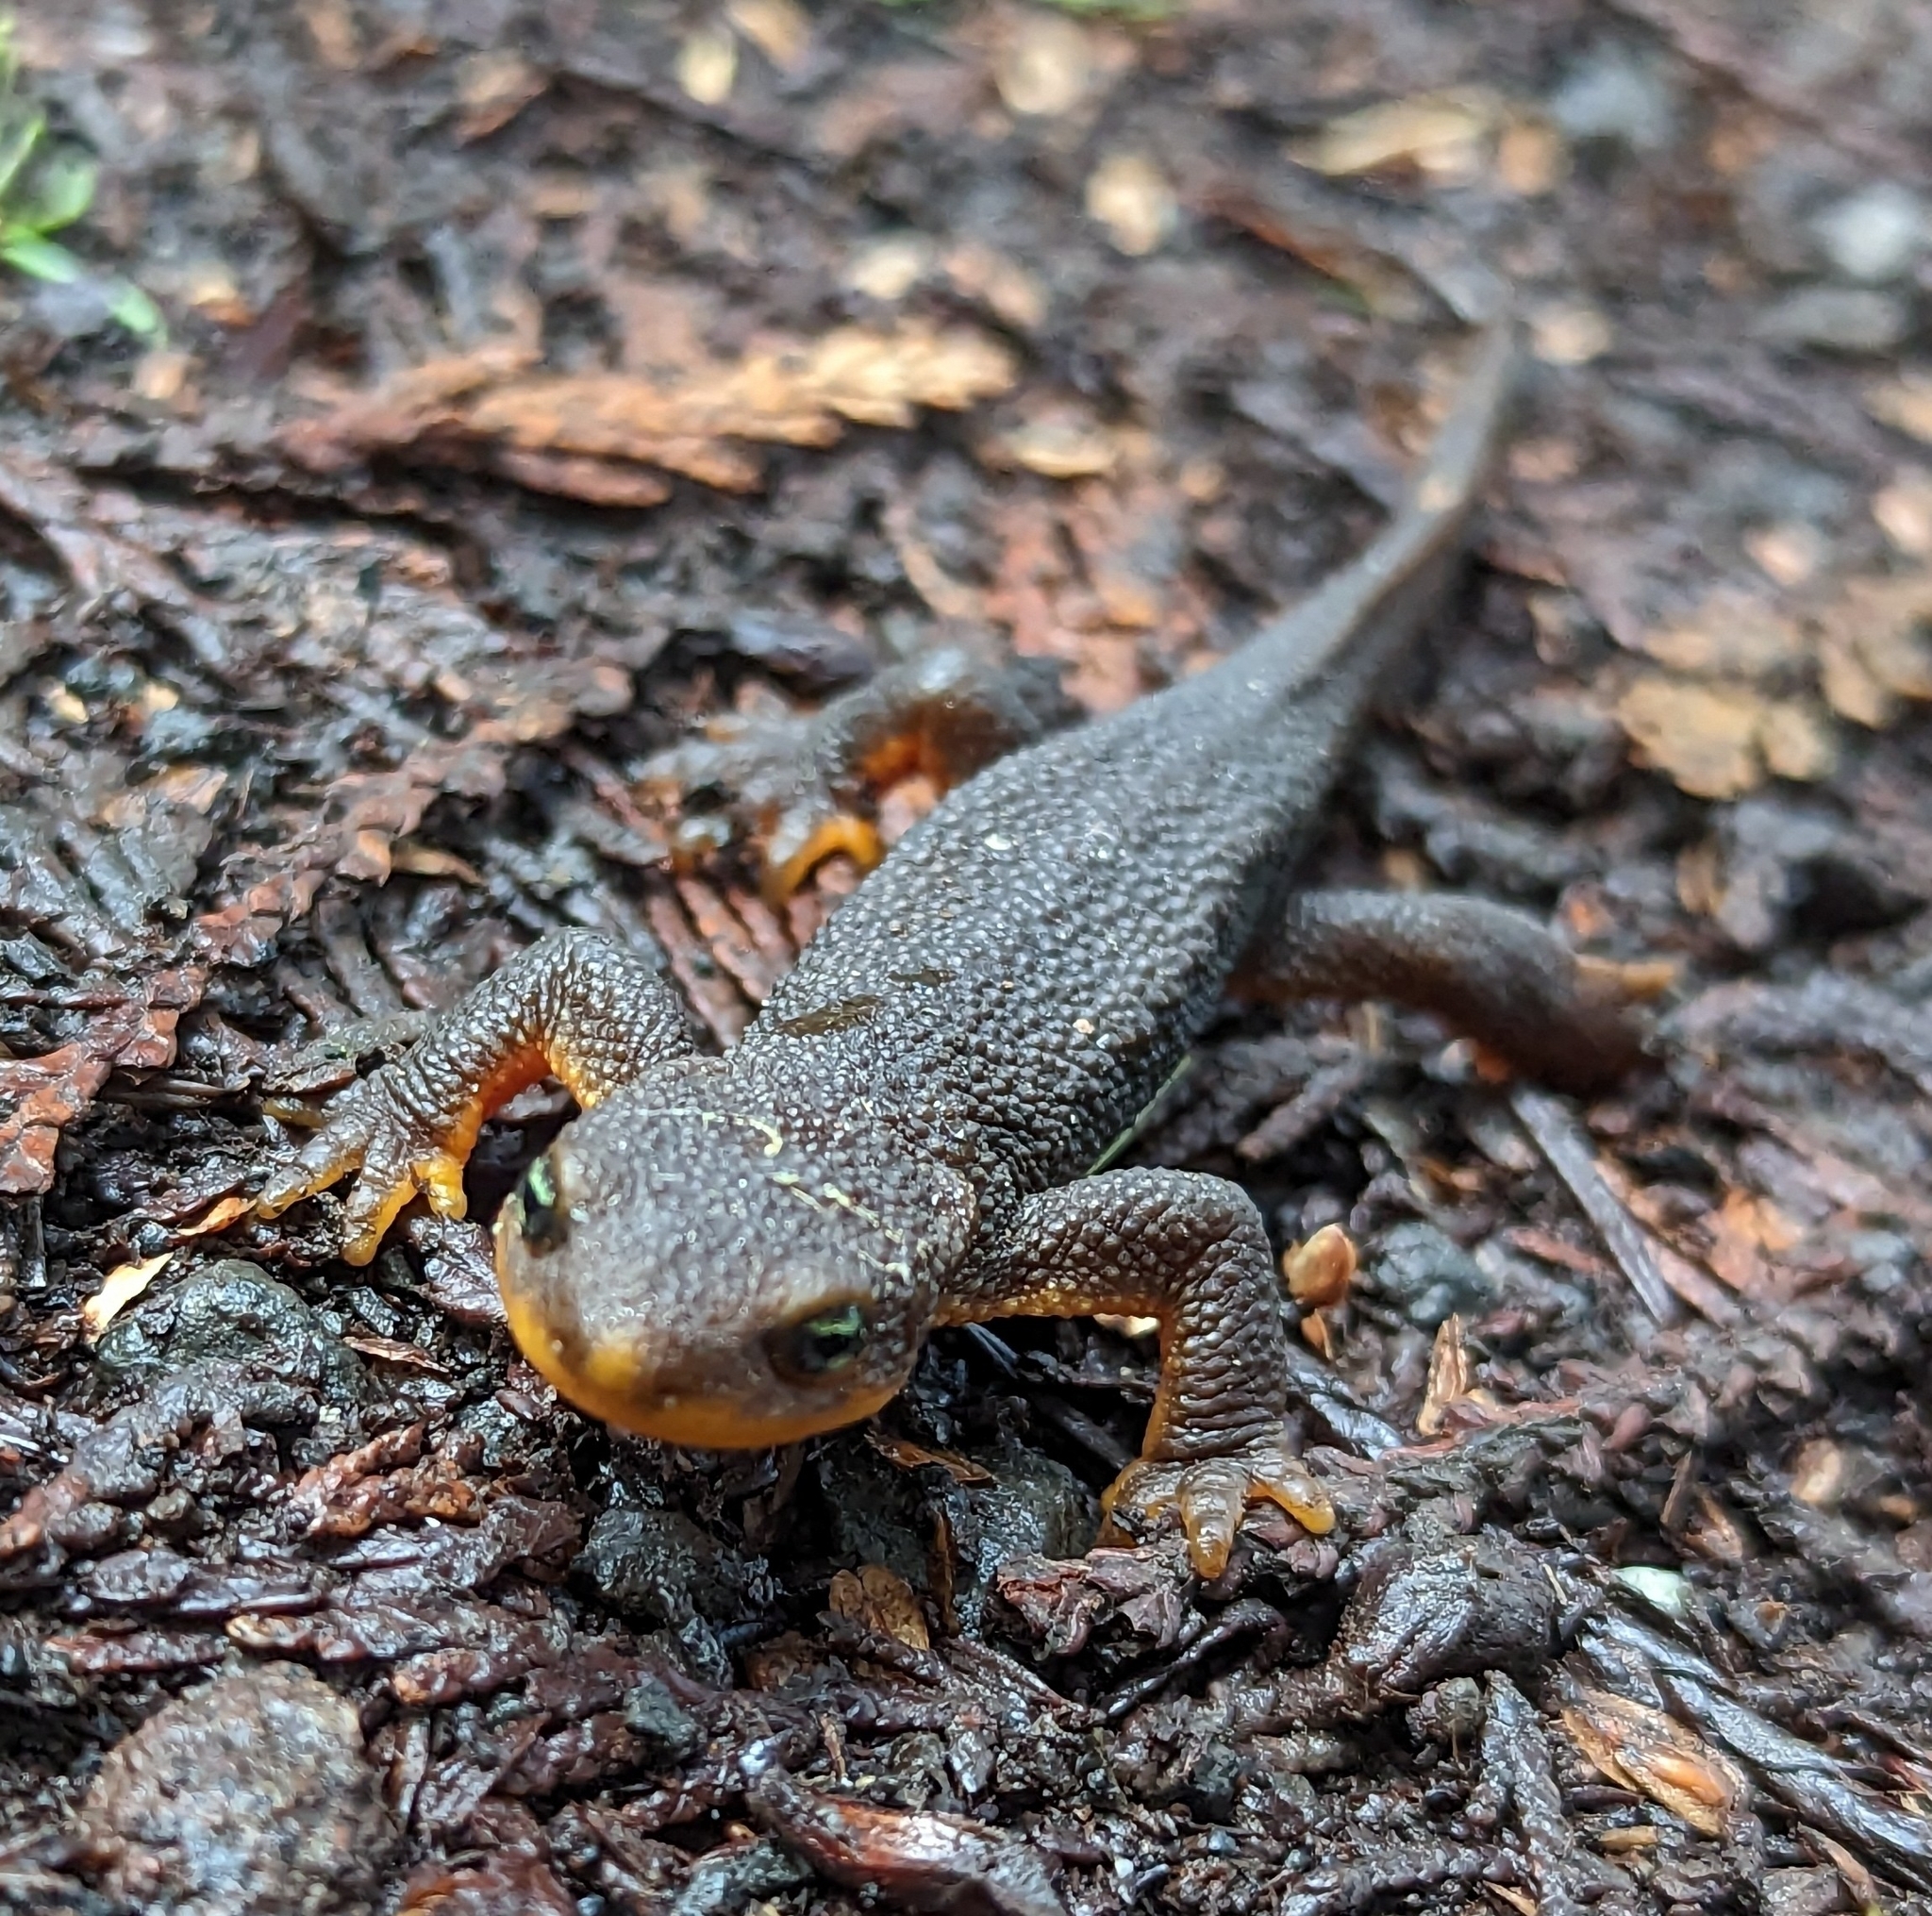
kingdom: Animalia
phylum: Chordata
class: Amphibia
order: Caudata
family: Salamandridae
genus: Taricha
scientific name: Taricha granulosa
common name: Roughskin newt
